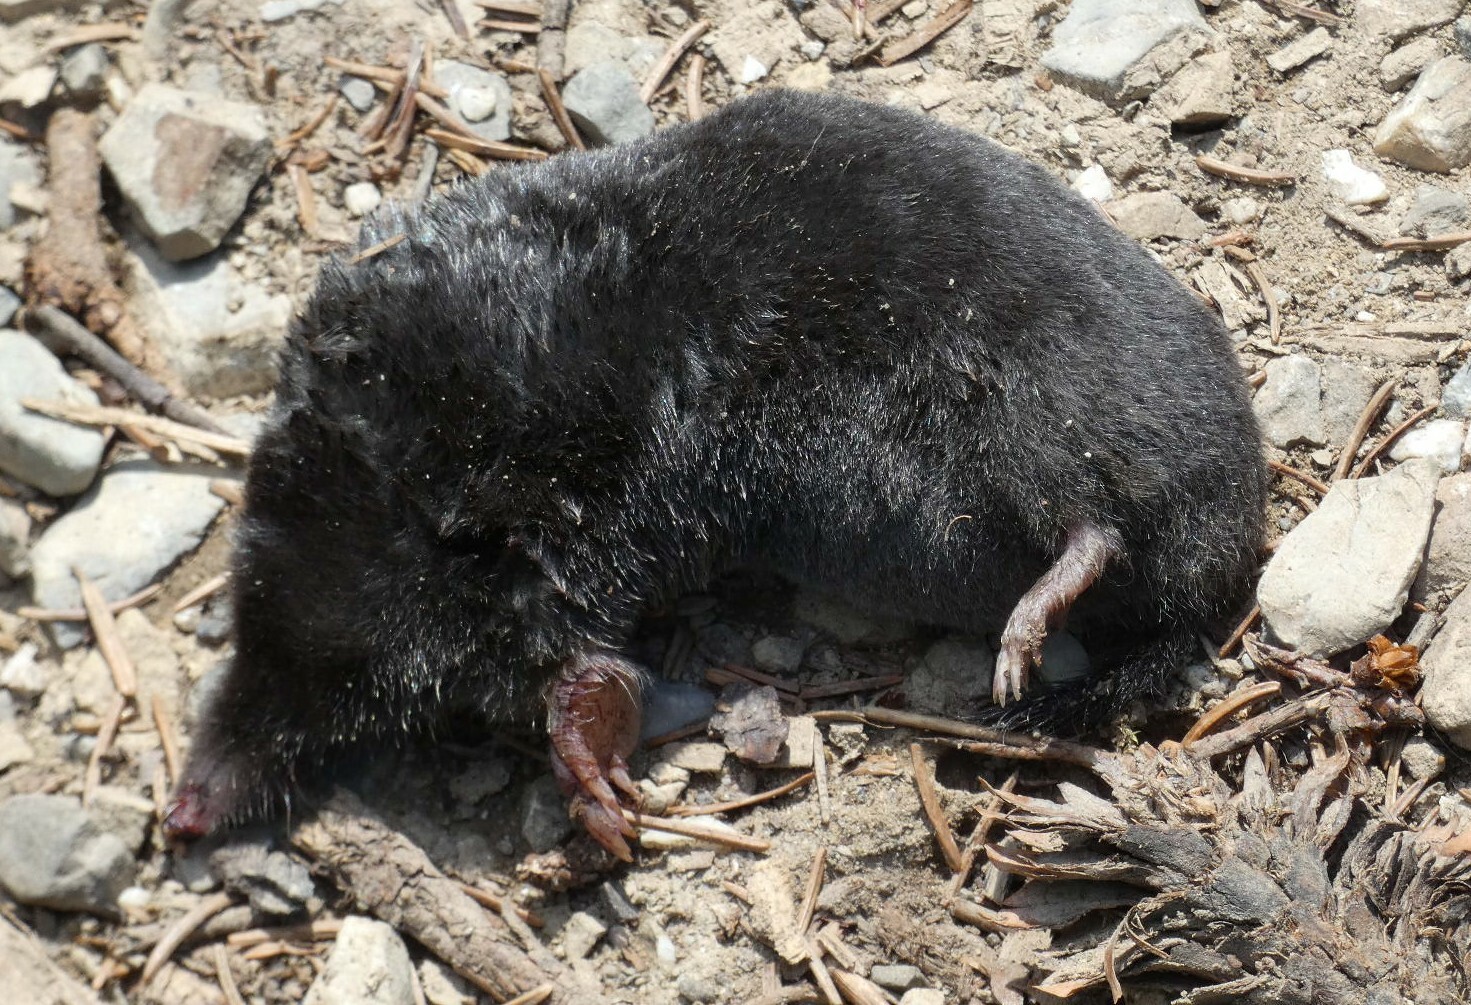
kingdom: Animalia
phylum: Chordata
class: Mammalia
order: Soricomorpha
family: Talpidae
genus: Talpa
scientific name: Talpa europaea
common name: European mole
